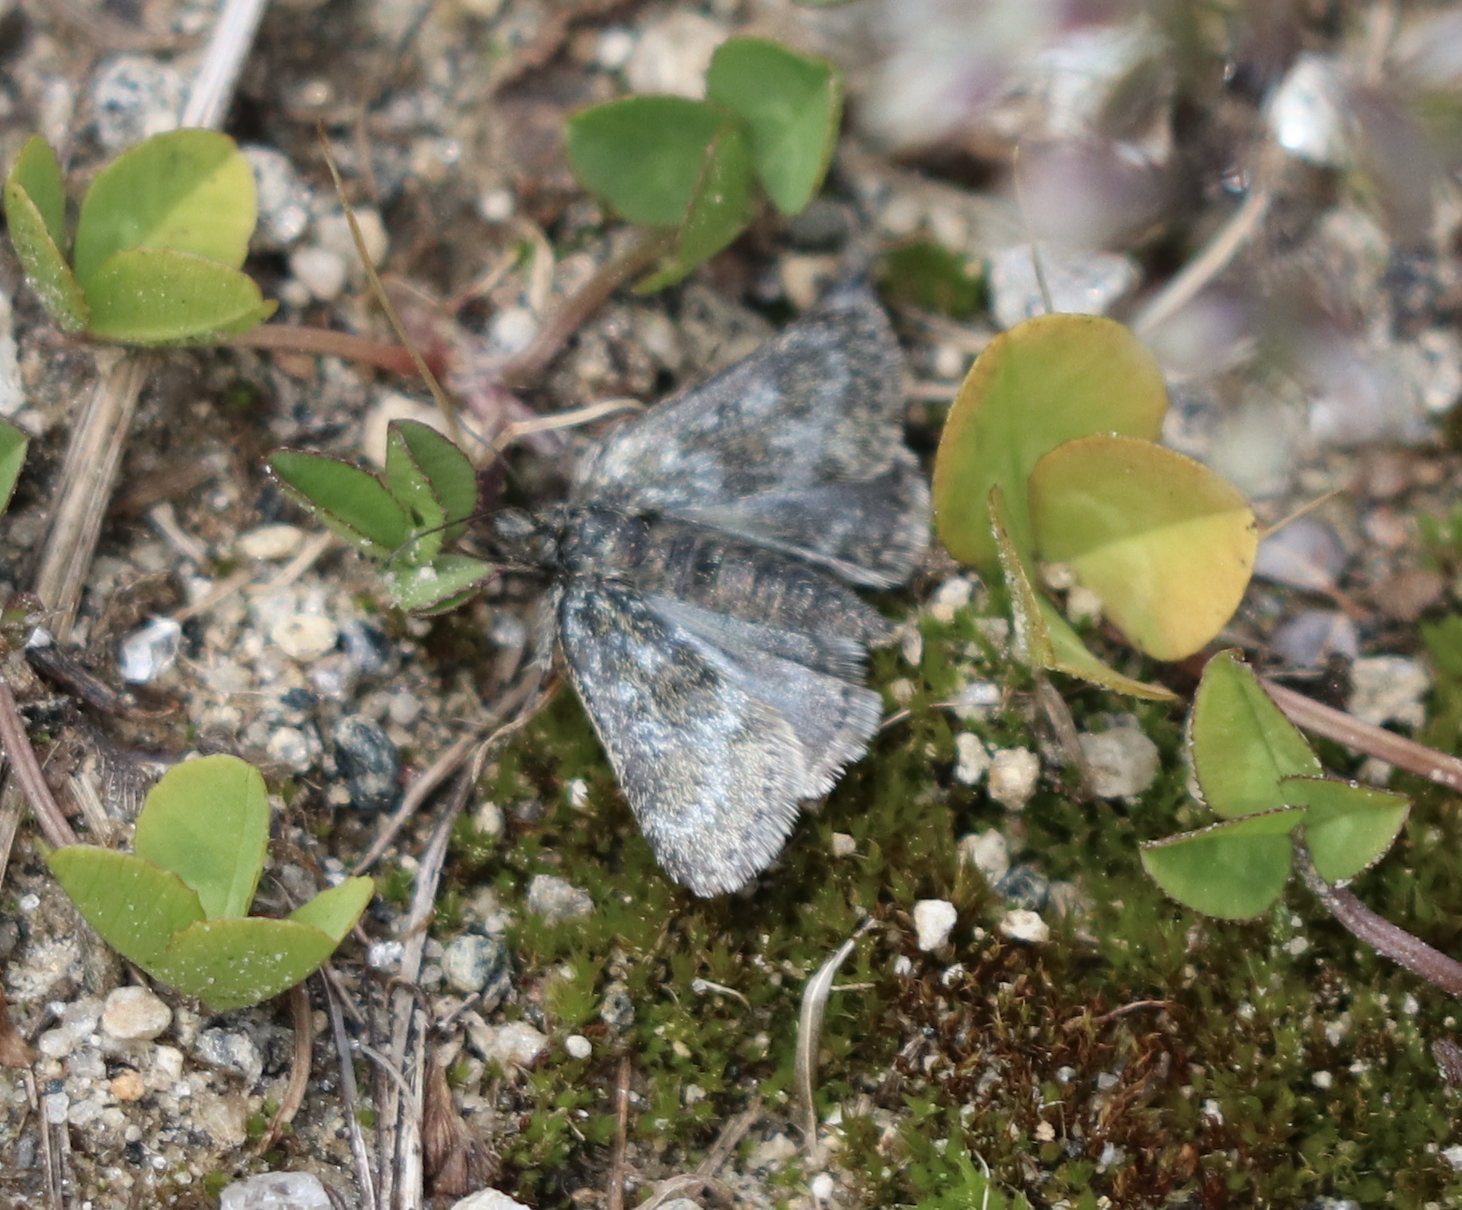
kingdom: Animalia
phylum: Arthropoda
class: Insecta
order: Lepidoptera
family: Crambidae
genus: Metaxmeste
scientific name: Metaxmeste phrygialis
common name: Black mountain pearl
